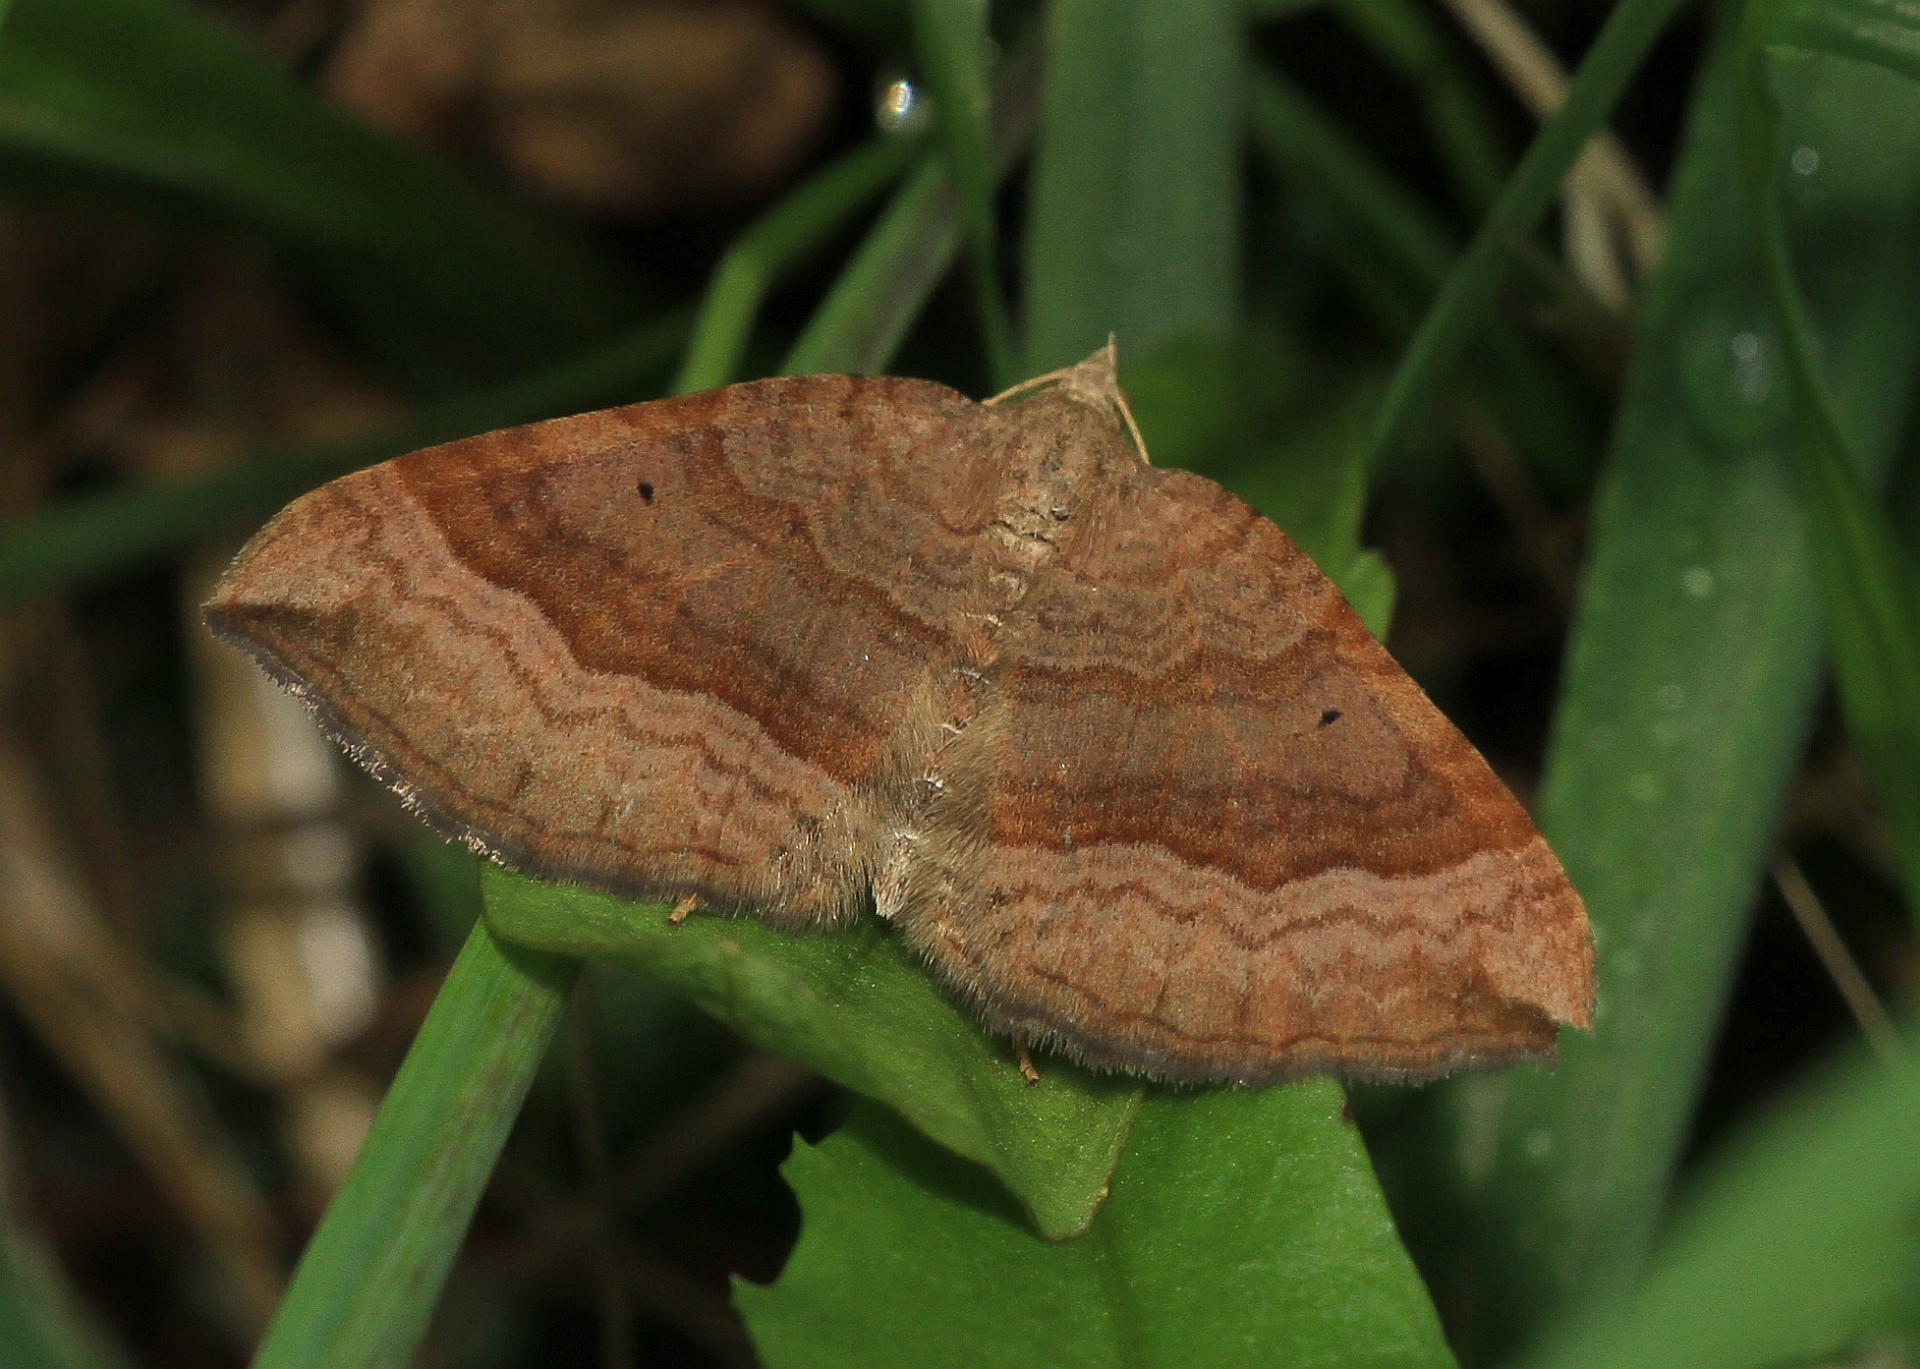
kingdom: Animalia
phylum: Arthropoda
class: Insecta
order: Lepidoptera
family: Geometridae
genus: Scotopteryx
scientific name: Scotopteryx chenopodiata
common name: Shaded broad-bar
